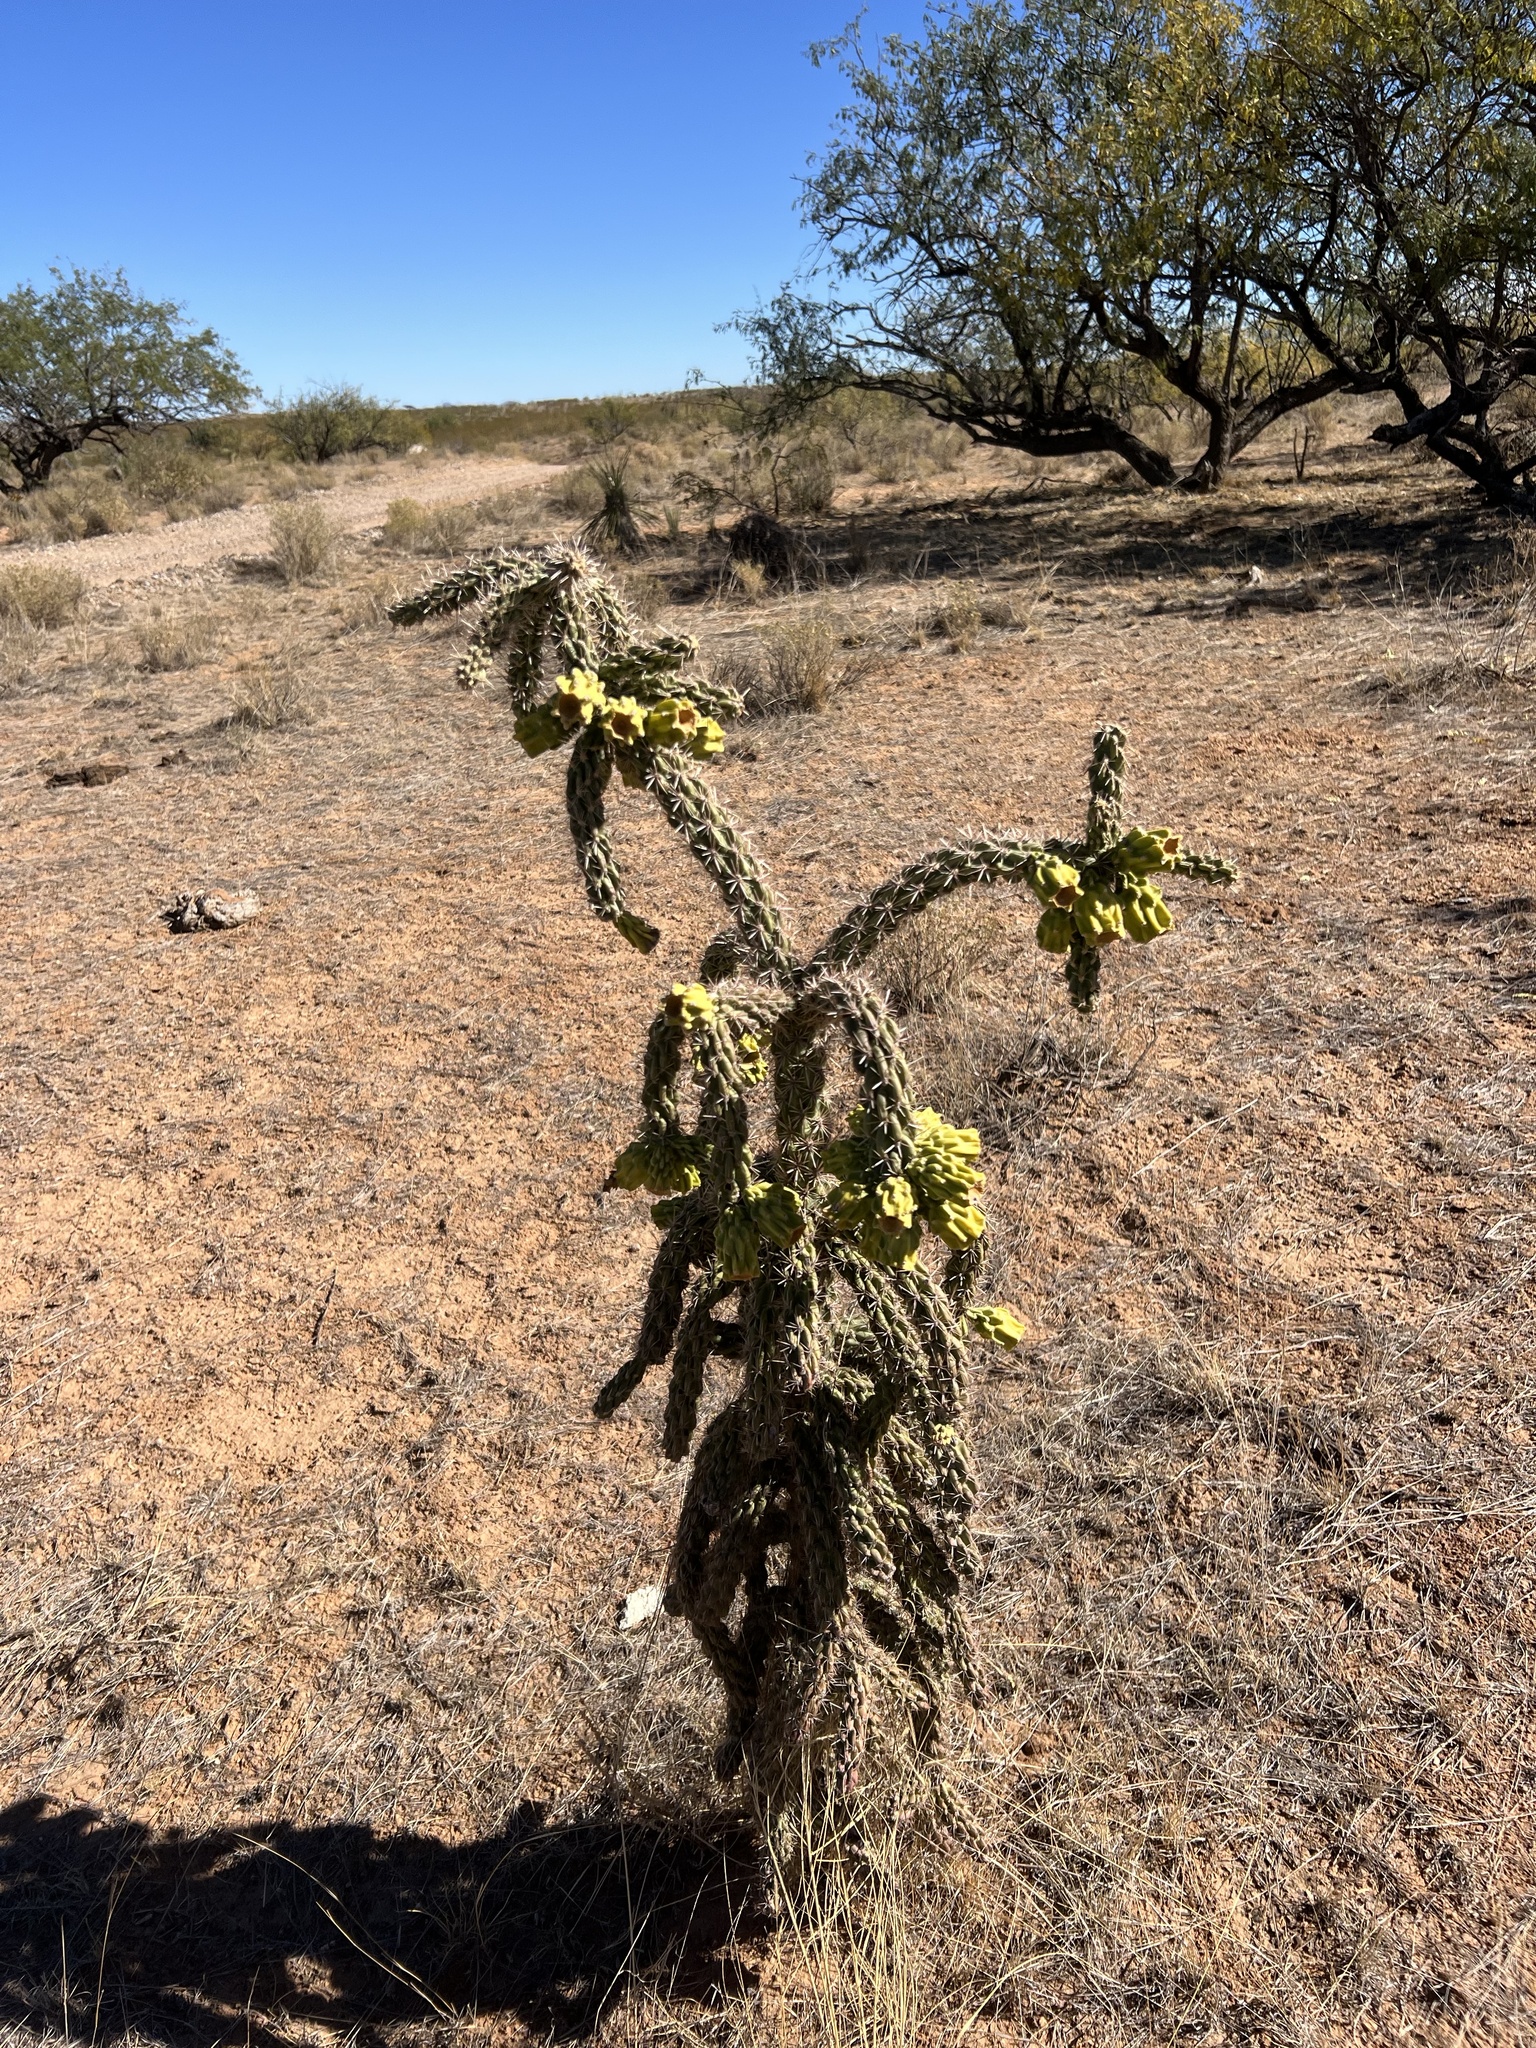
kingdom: Plantae
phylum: Tracheophyta
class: Magnoliopsida
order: Caryophyllales
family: Cactaceae
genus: Cylindropuntia
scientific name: Cylindropuntia imbricata
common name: Candelabrum cactus
